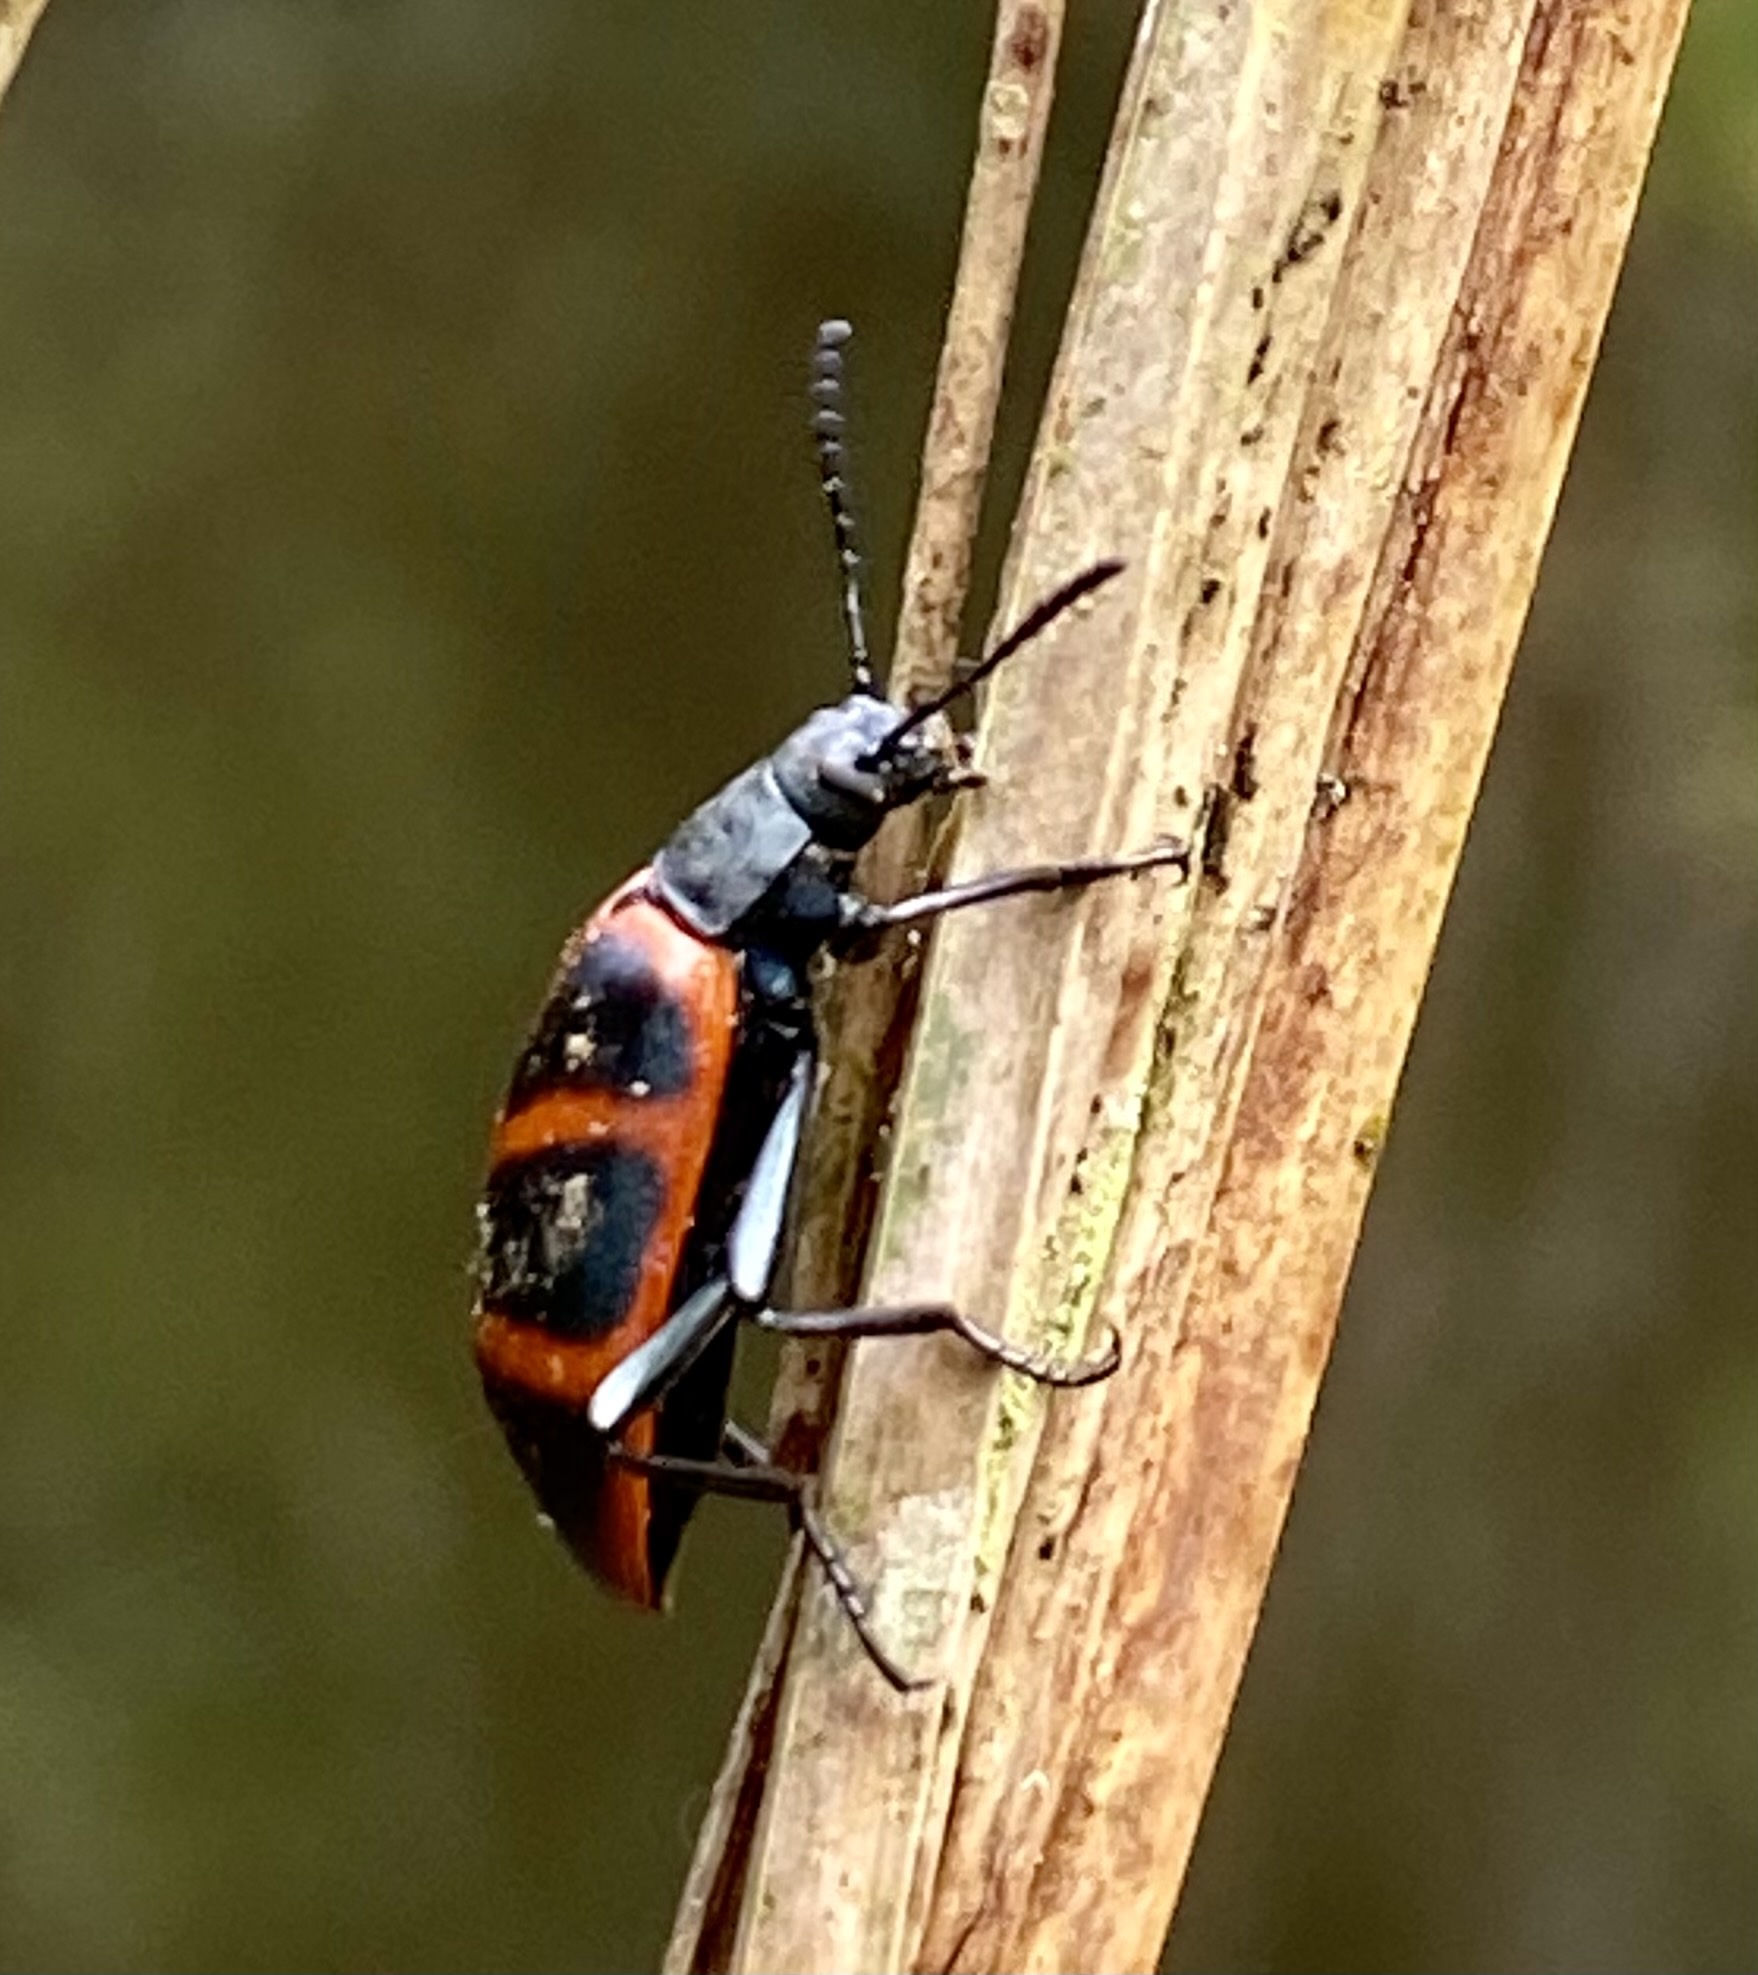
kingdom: Animalia
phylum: Arthropoda
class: Insecta
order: Coleoptera
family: Tenebrionidae
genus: Poecilesthus
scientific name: Poecilesthus
